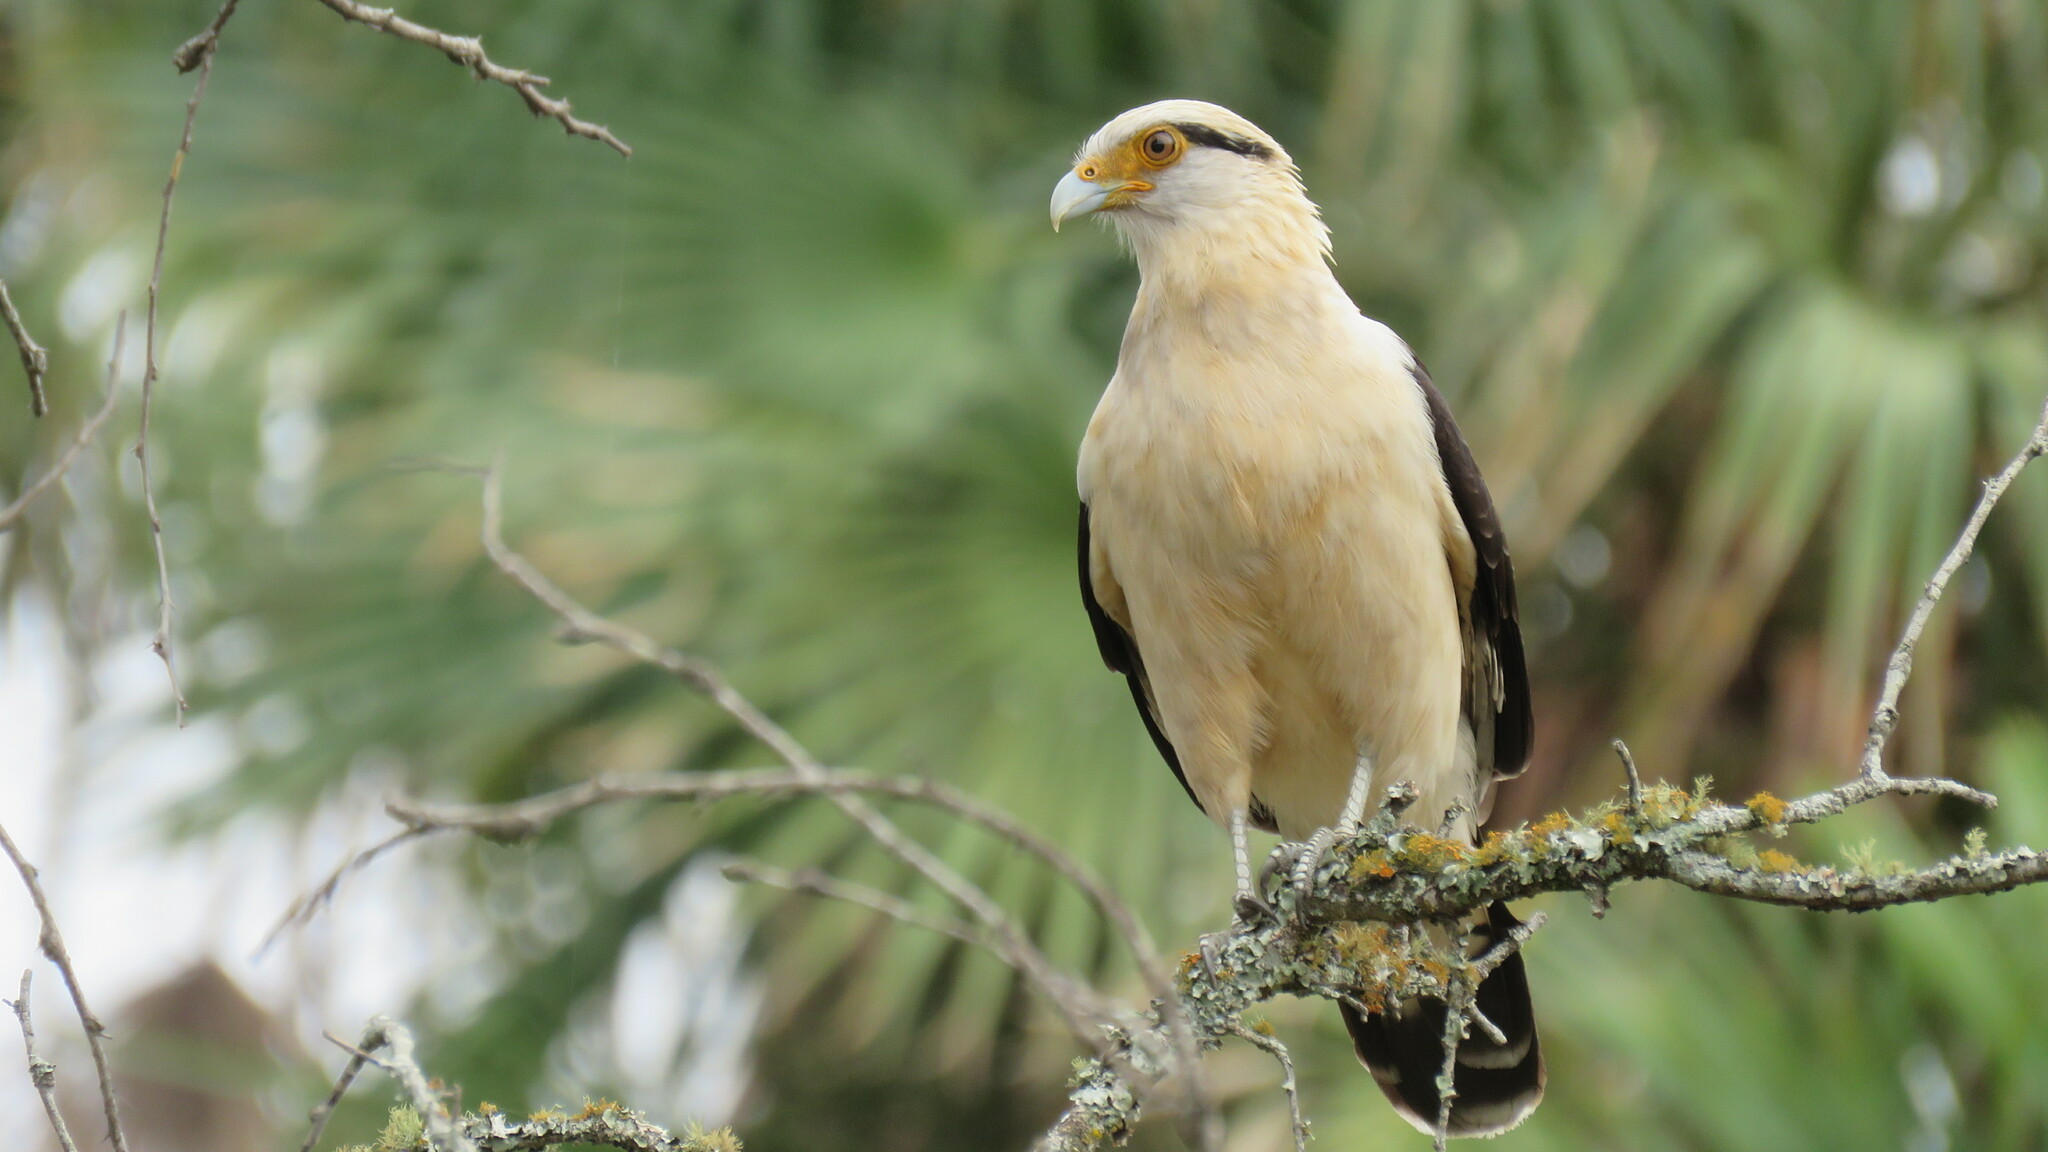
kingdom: Animalia
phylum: Chordata
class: Aves
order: Falconiformes
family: Falconidae
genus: Daptrius
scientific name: Daptrius
